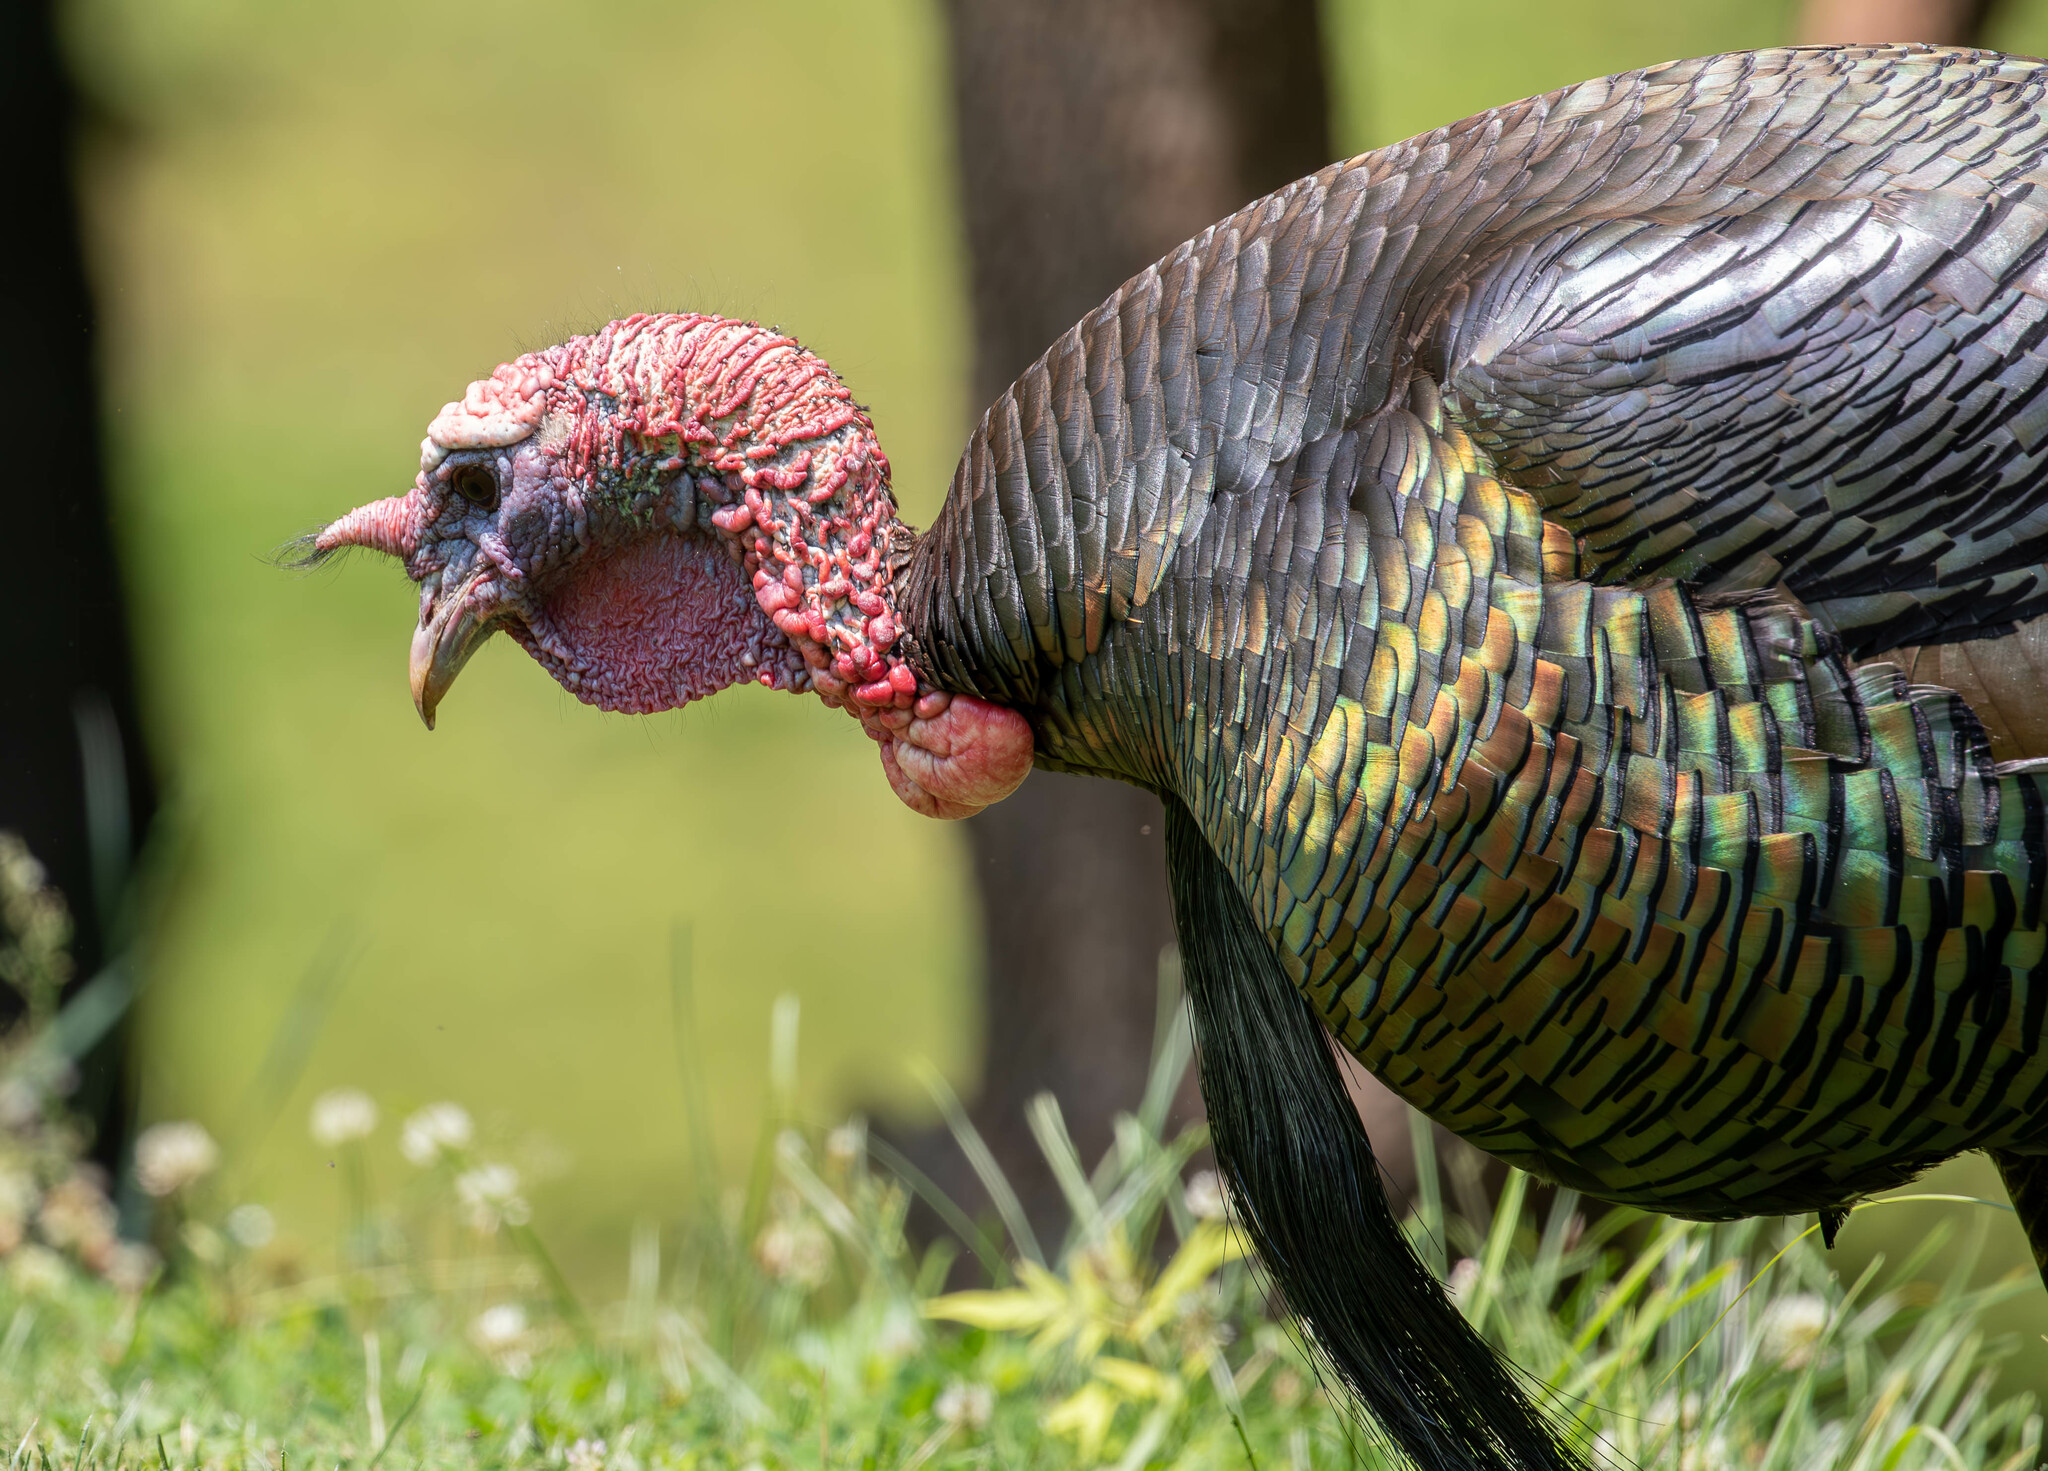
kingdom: Animalia
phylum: Chordata
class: Aves
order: Galliformes
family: Phasianidae
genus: Meleagris
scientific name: Meleagris gallopavo
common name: Wild turkey
